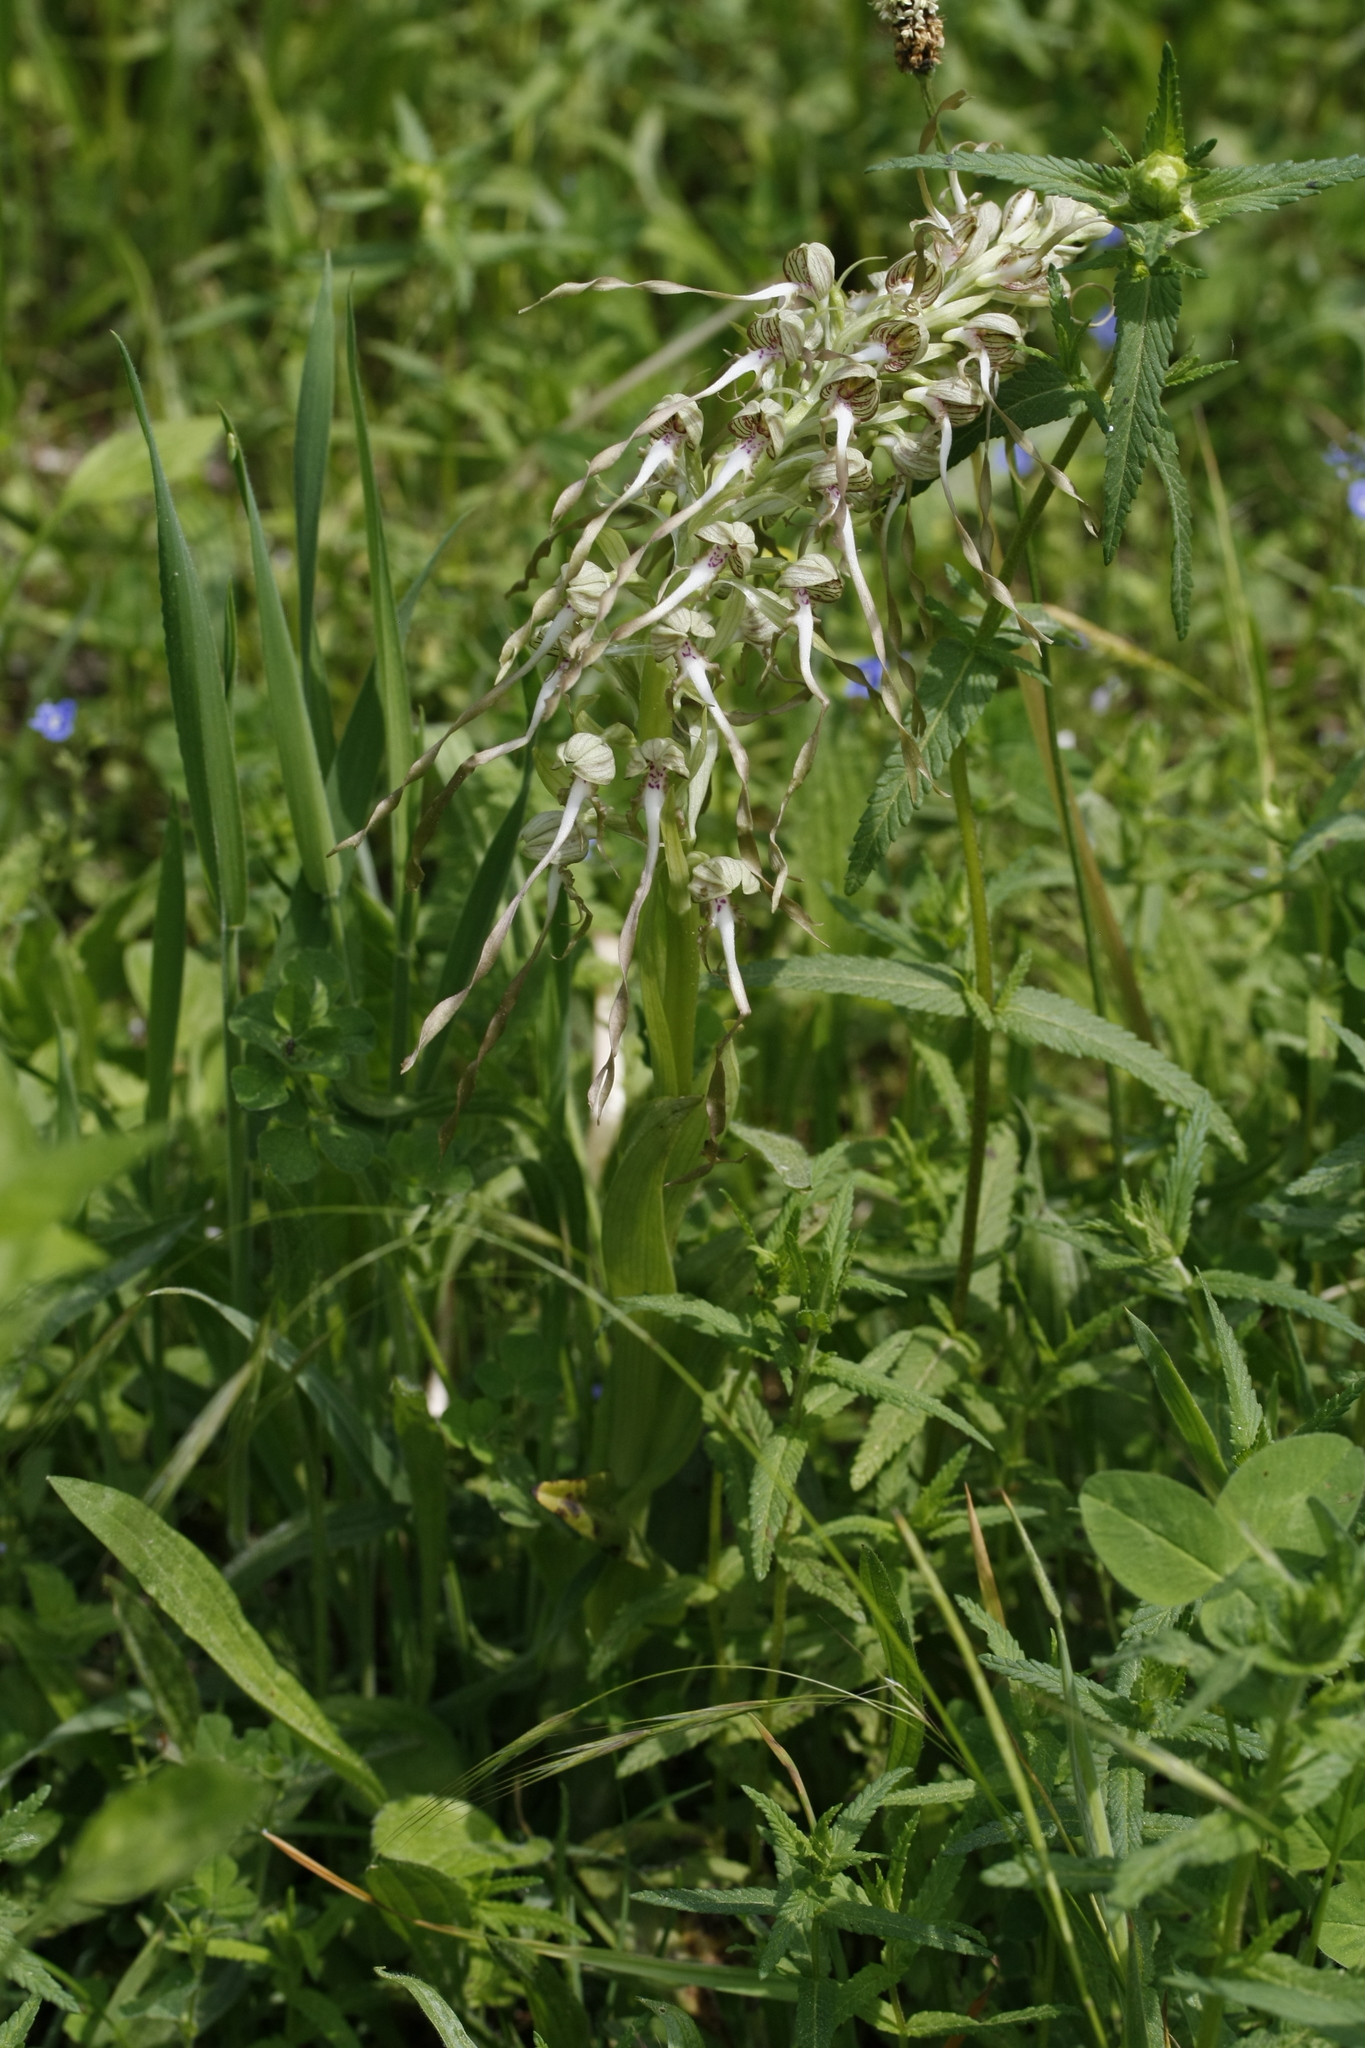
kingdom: Plantae
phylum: Tracheophyta
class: Liliopsida
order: Asparagales
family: Orchidaceae
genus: Himantoglossum
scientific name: Himantoglossum hircinum
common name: Lizard orchid
